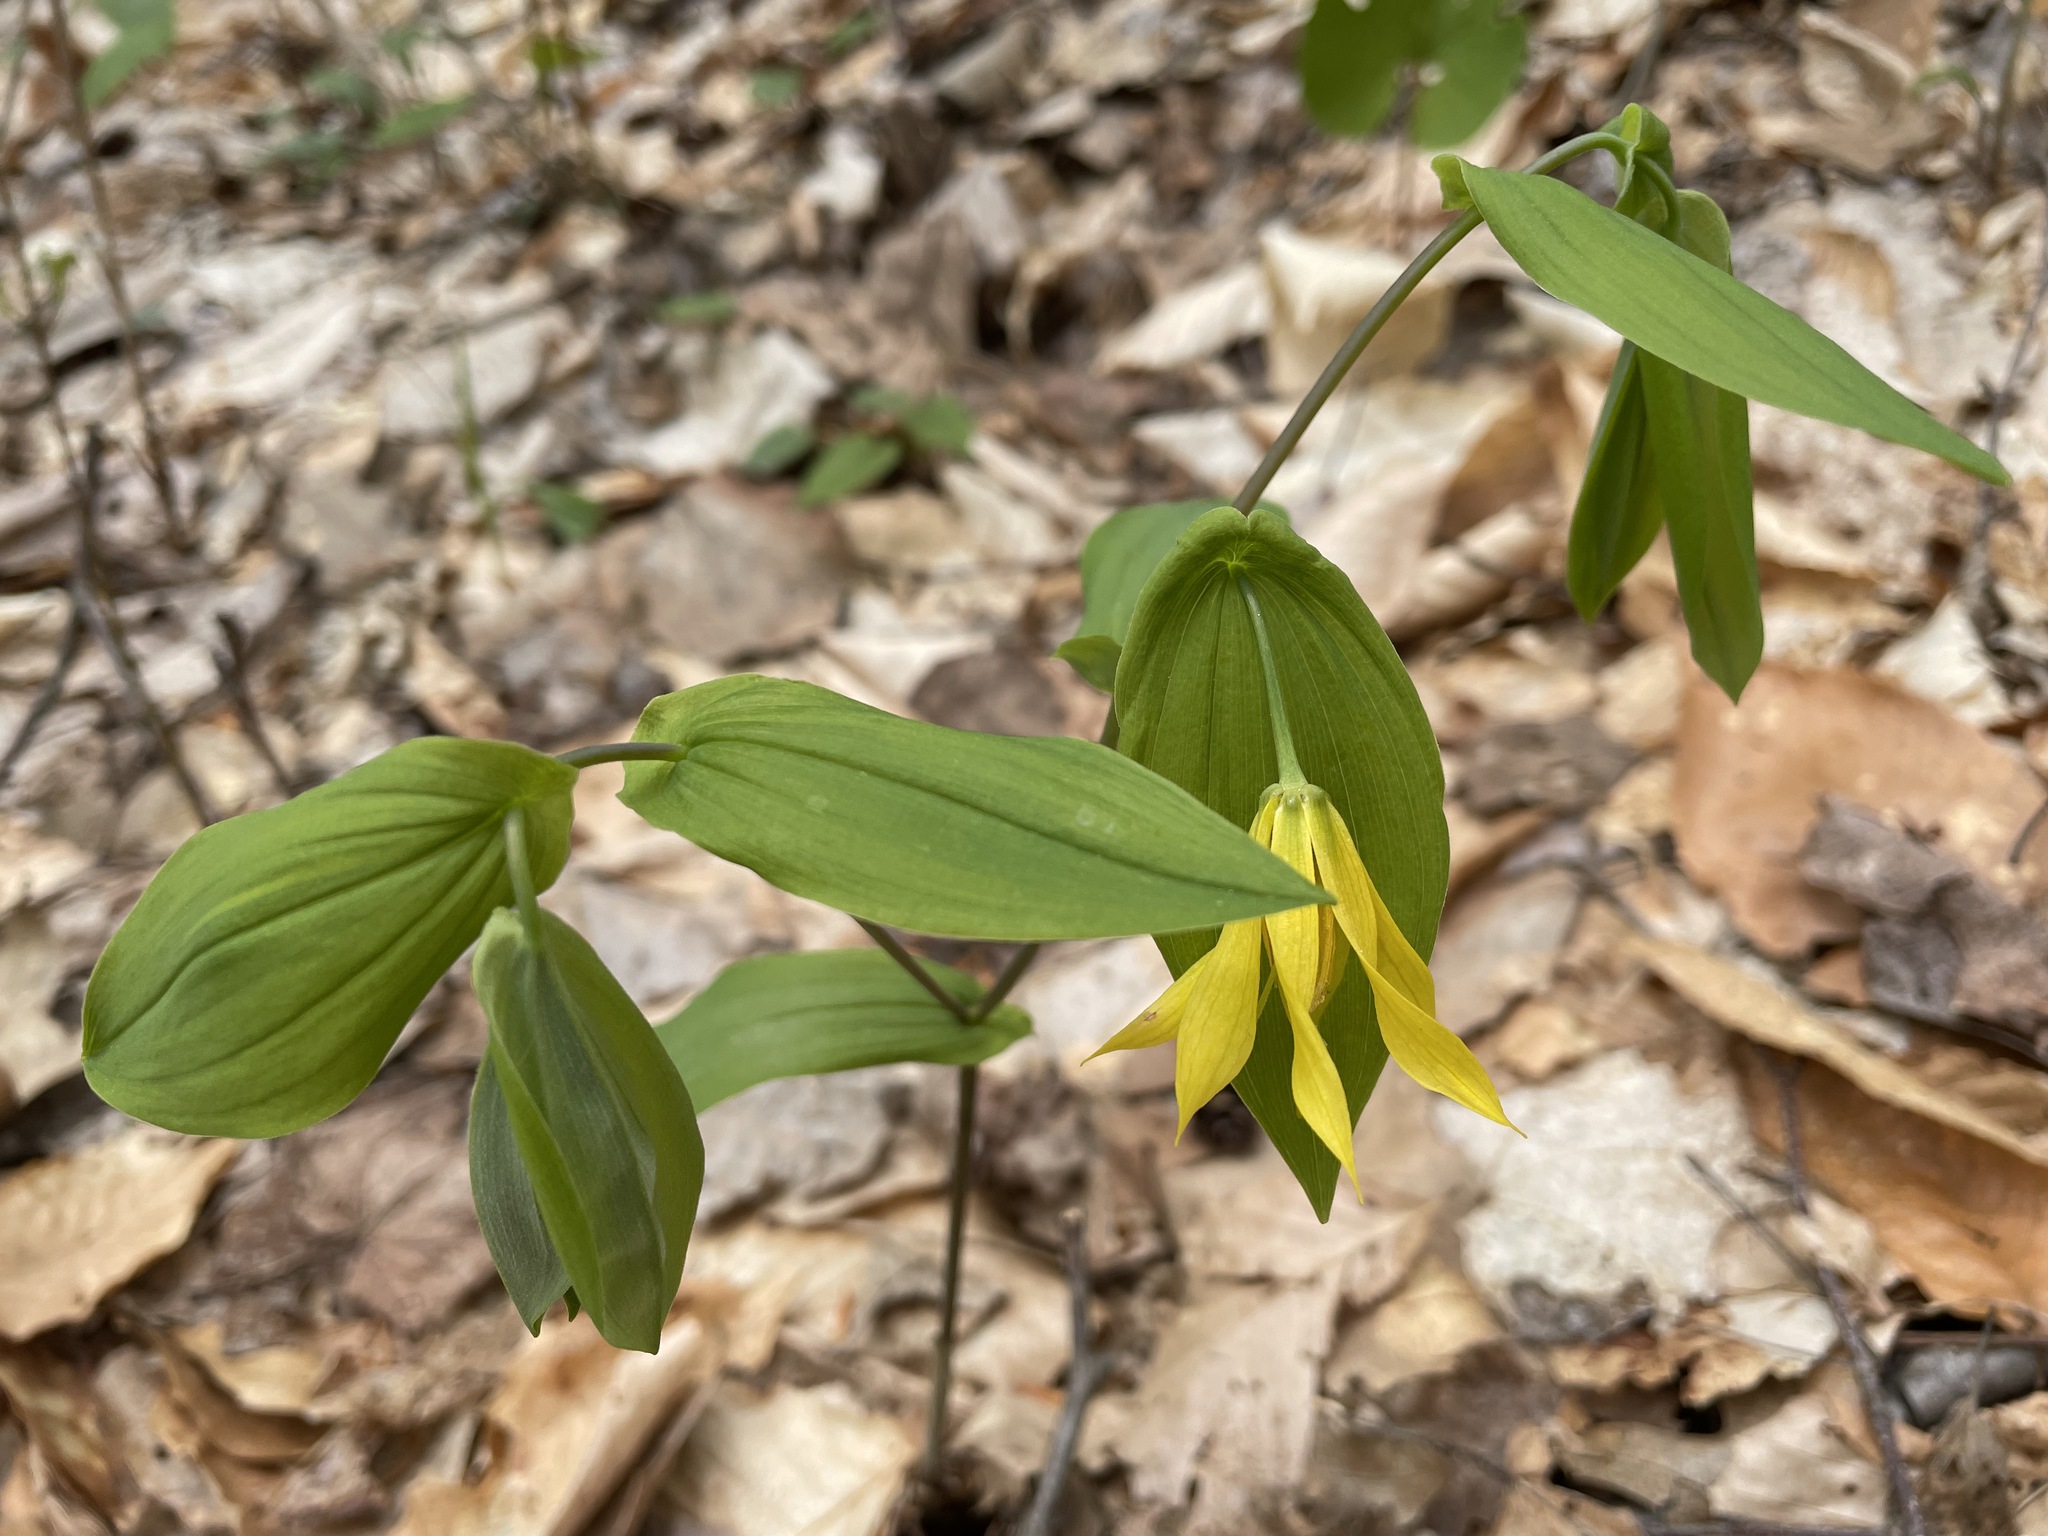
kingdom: Plantae
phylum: Tracheophyta
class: Liliopsida
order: Liliales
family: Colchicaceae
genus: Uvularia
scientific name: Uvularia grandiflora
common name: Bellwort
